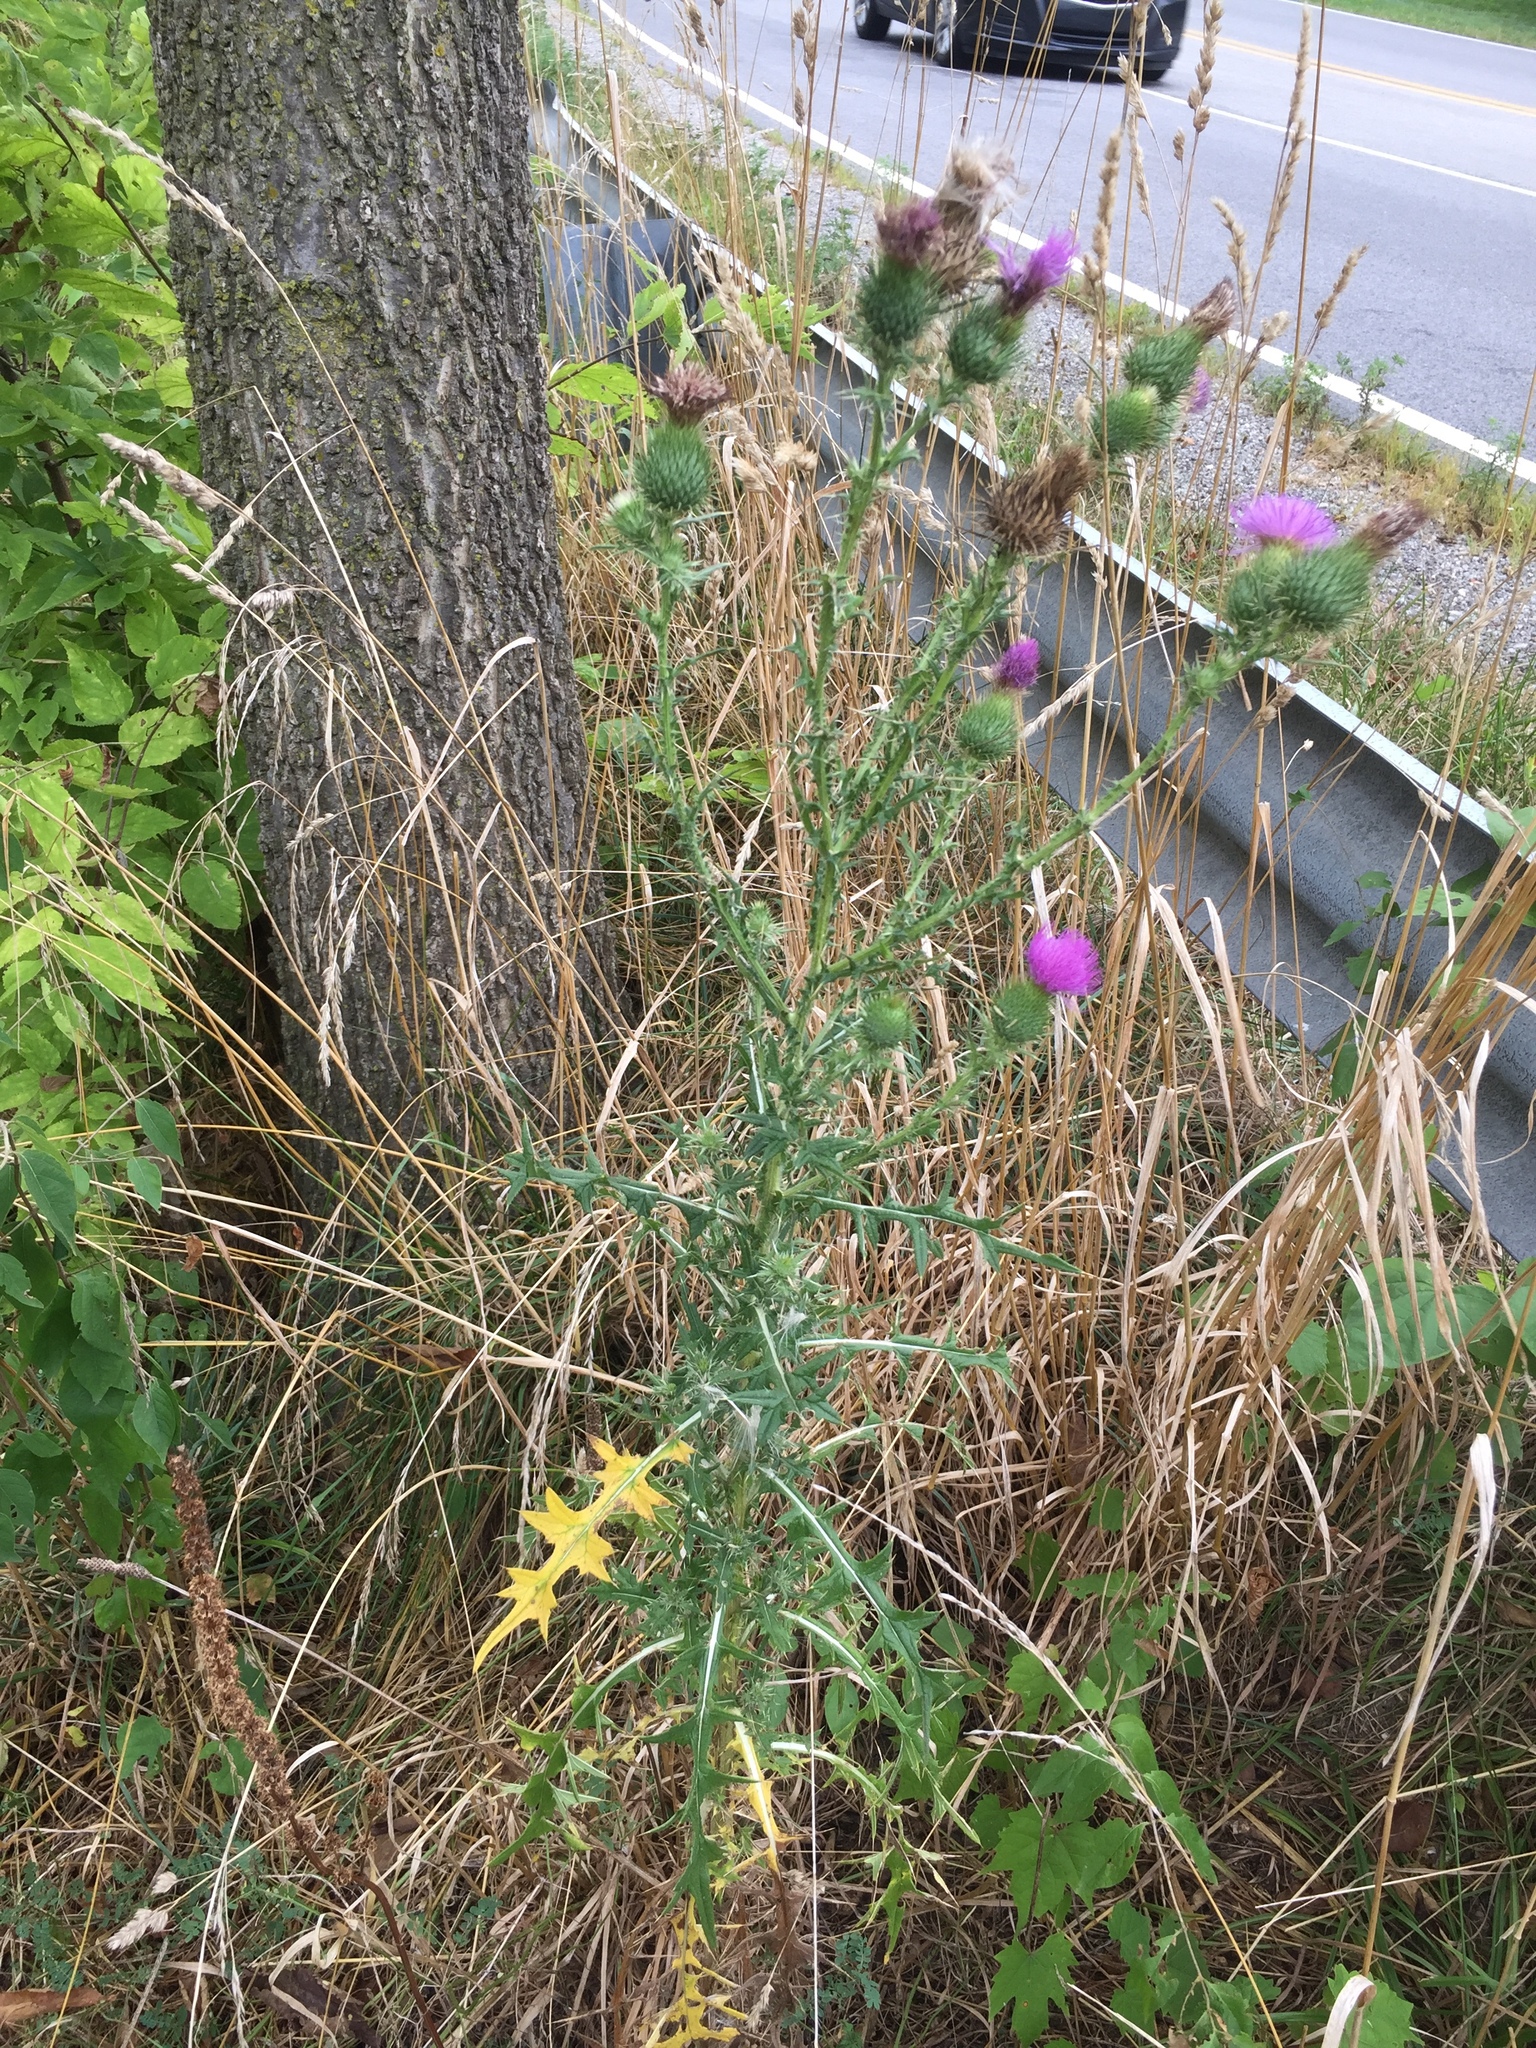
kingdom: Plantae
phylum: Tracheophyta
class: Magnoliopsida
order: Asterales
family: Asteraceae
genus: Cirsium
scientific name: Cirsium vulgare
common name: Bull thistle
